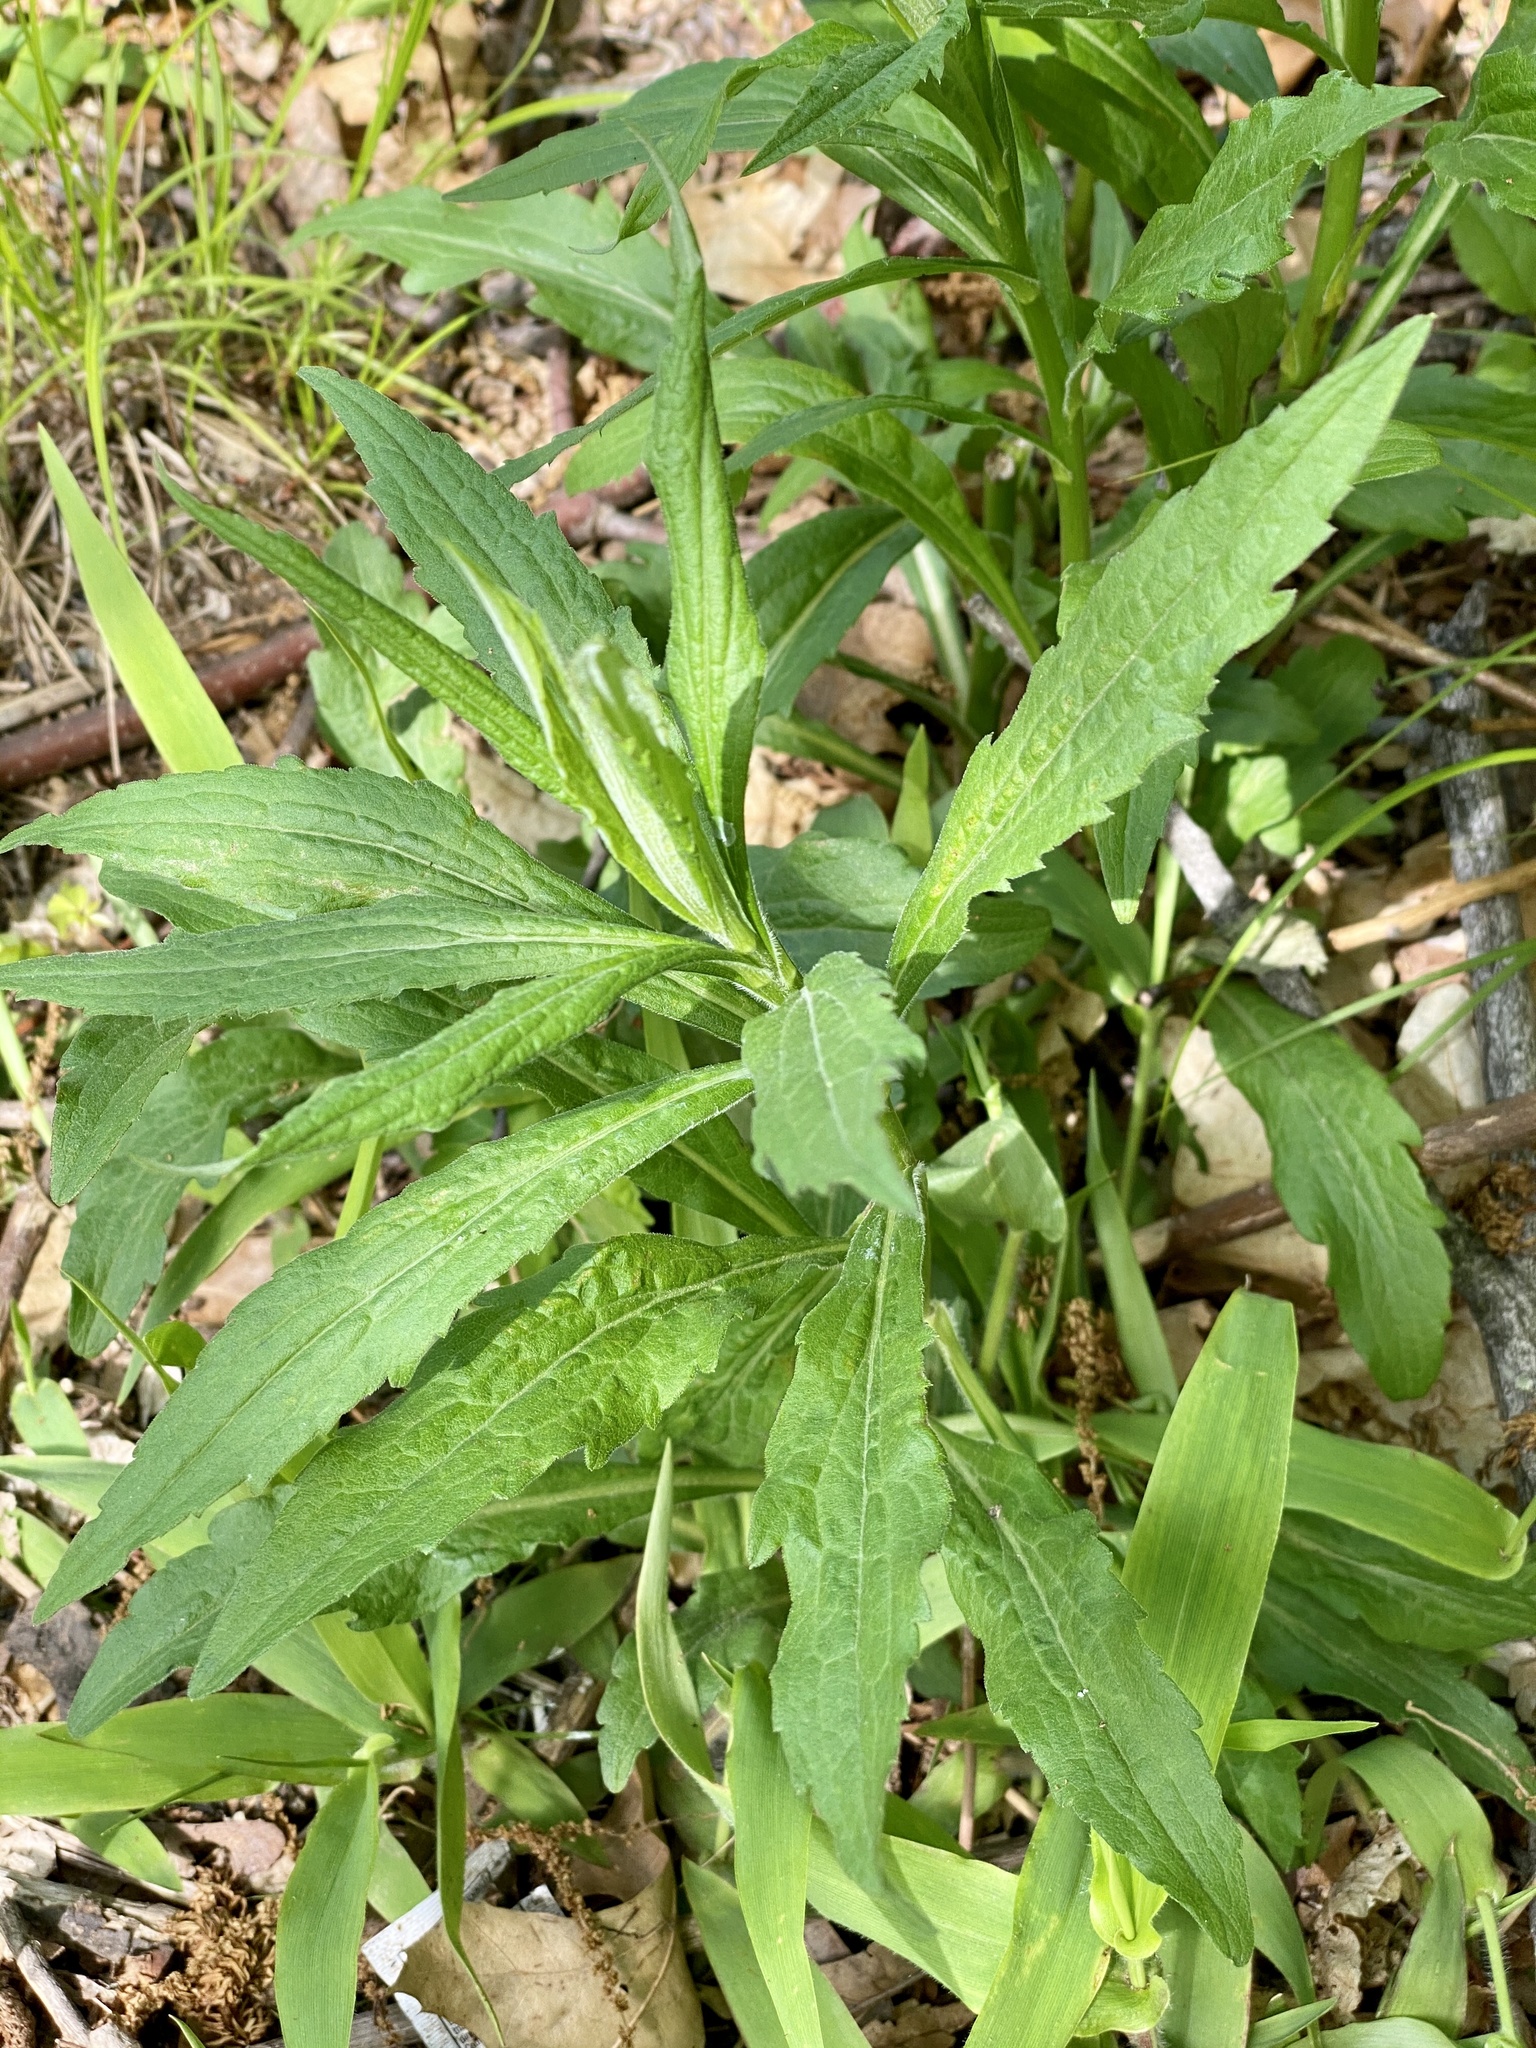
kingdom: Plantae
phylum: Tracheophyta
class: Magnoliopsida
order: Asterales
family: Asteraceae
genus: Solidago
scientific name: Solidago rugosa
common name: Rough-stemmed goldenrod
